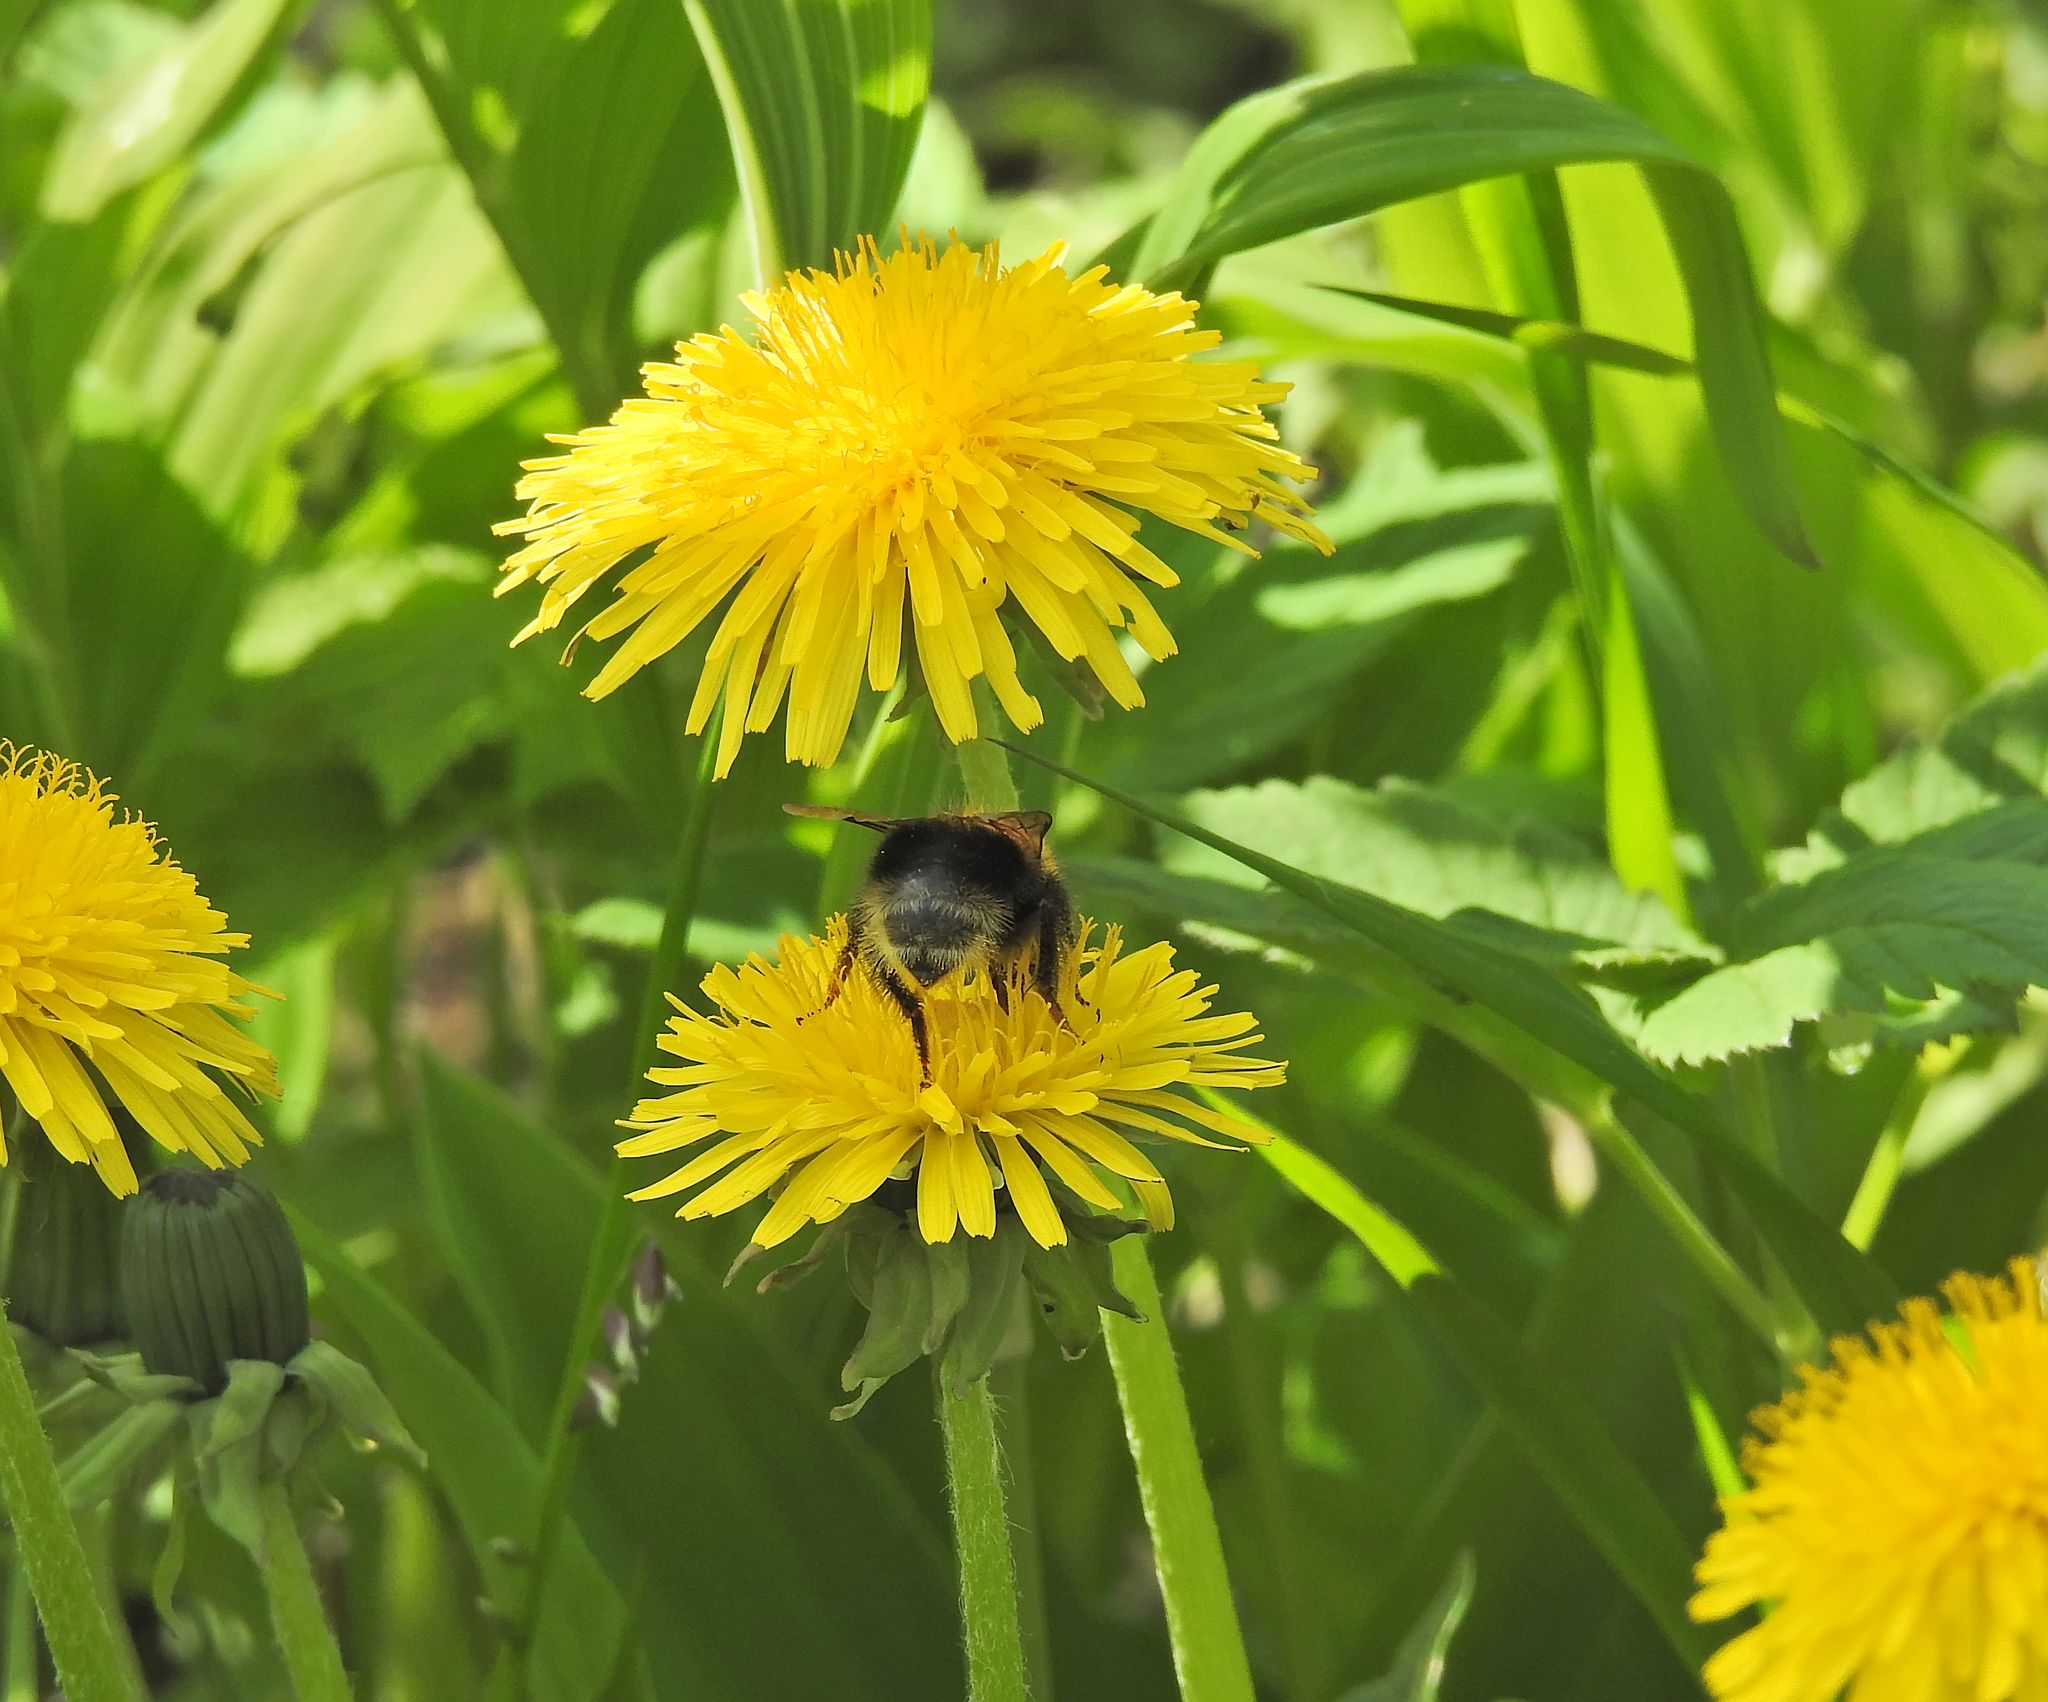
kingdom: Animalia
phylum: Arthropoda
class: Insecta
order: Hymenoptera
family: Apidae
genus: Bombus
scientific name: Bombus hypnorum
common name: New garden bumblebee
